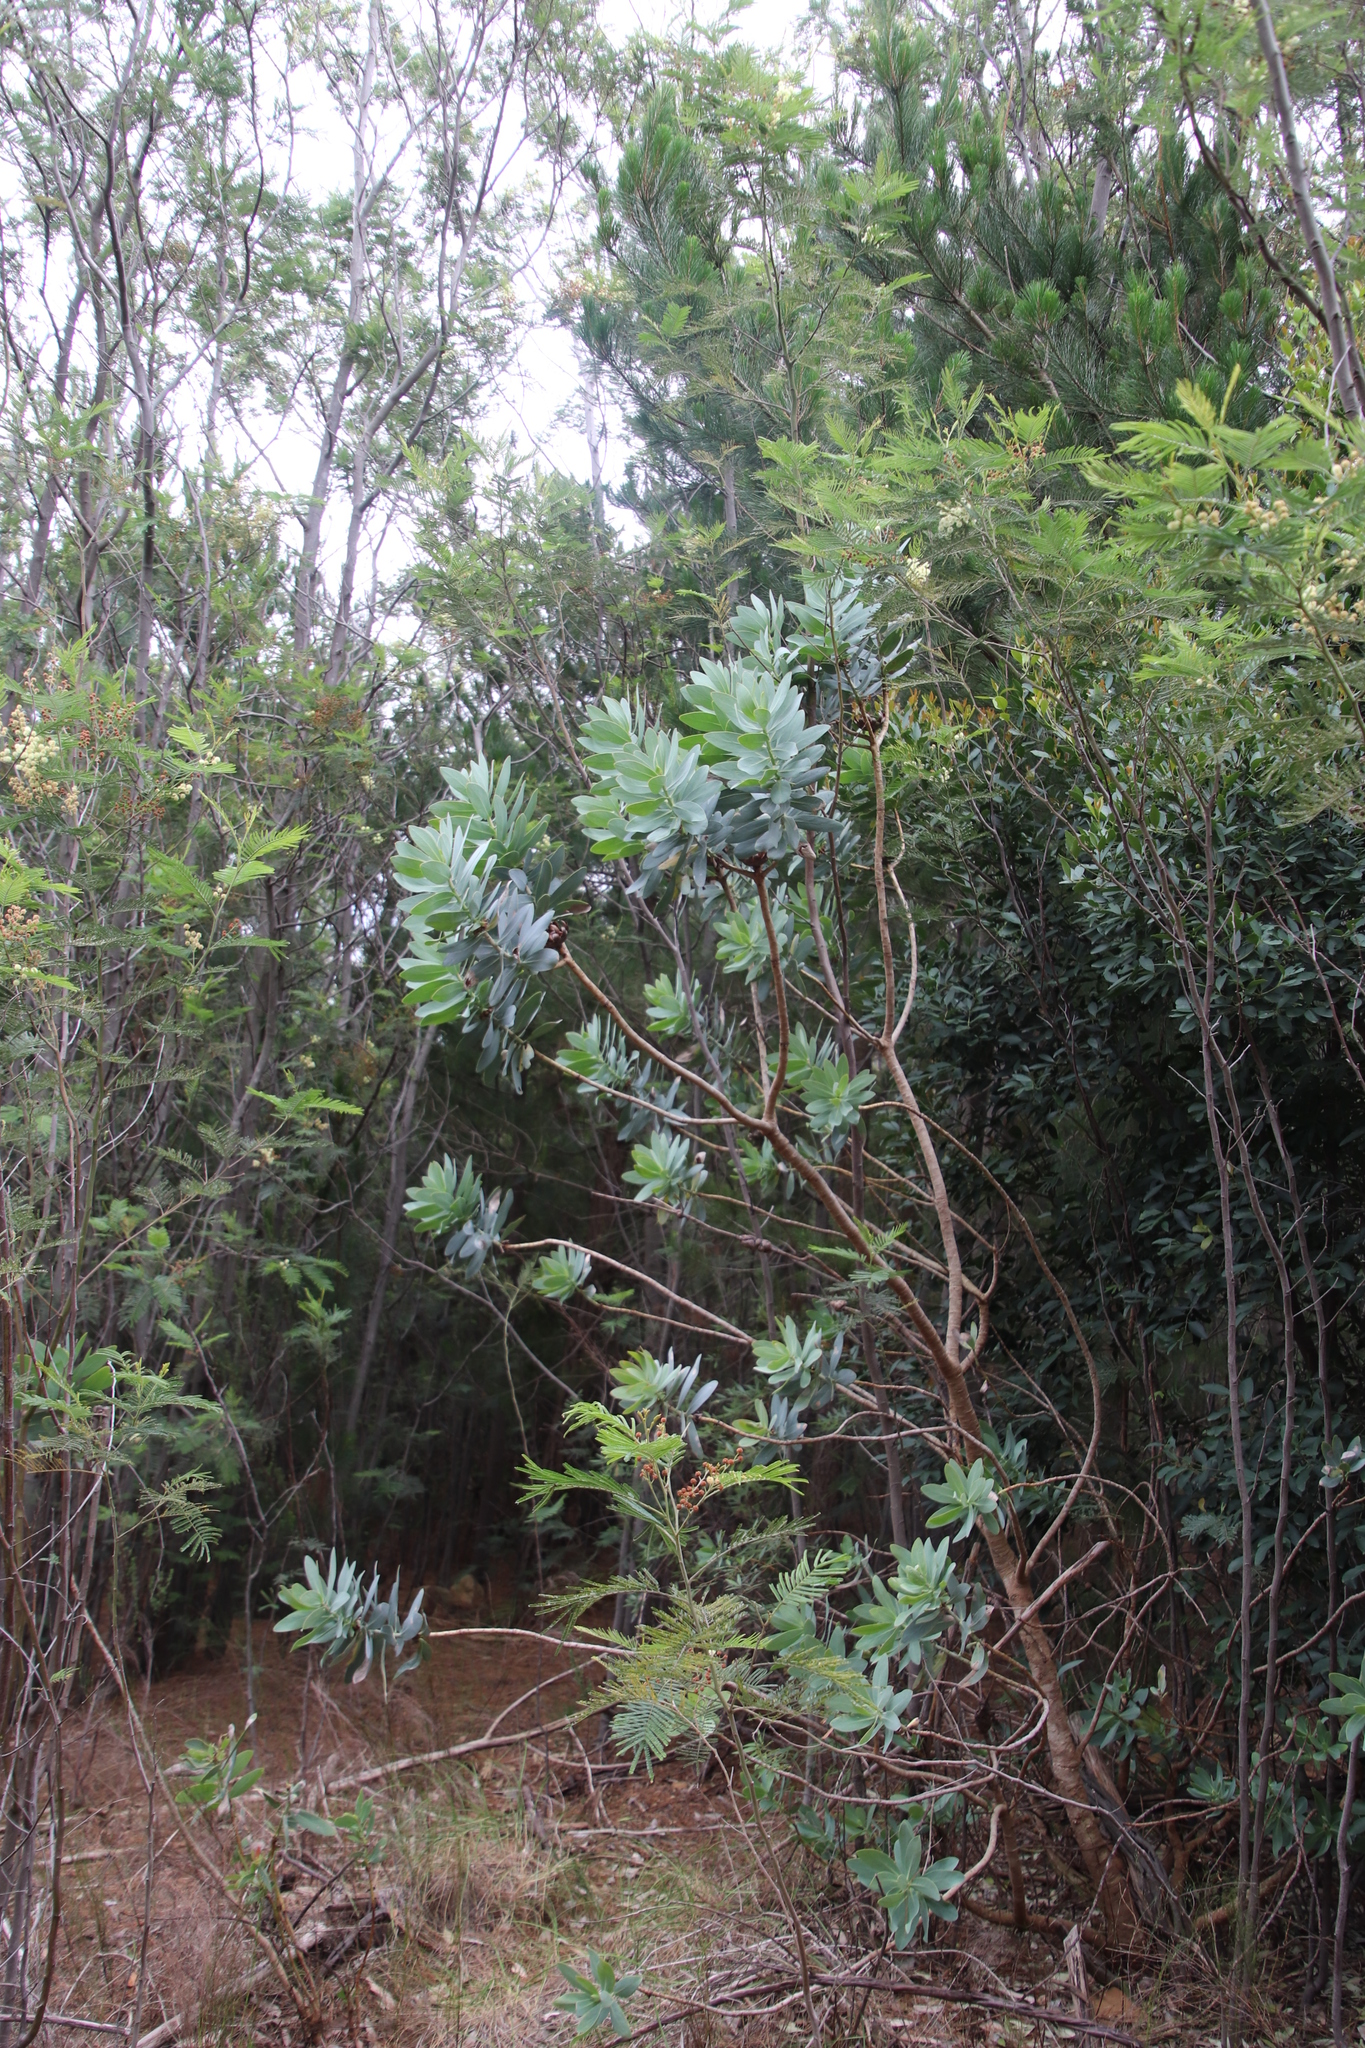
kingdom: Plantae
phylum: Tracheophyta
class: Magnoliopsida
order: Proteales
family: Proteaceae
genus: Protea
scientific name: Protea nitida
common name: Tree protea
